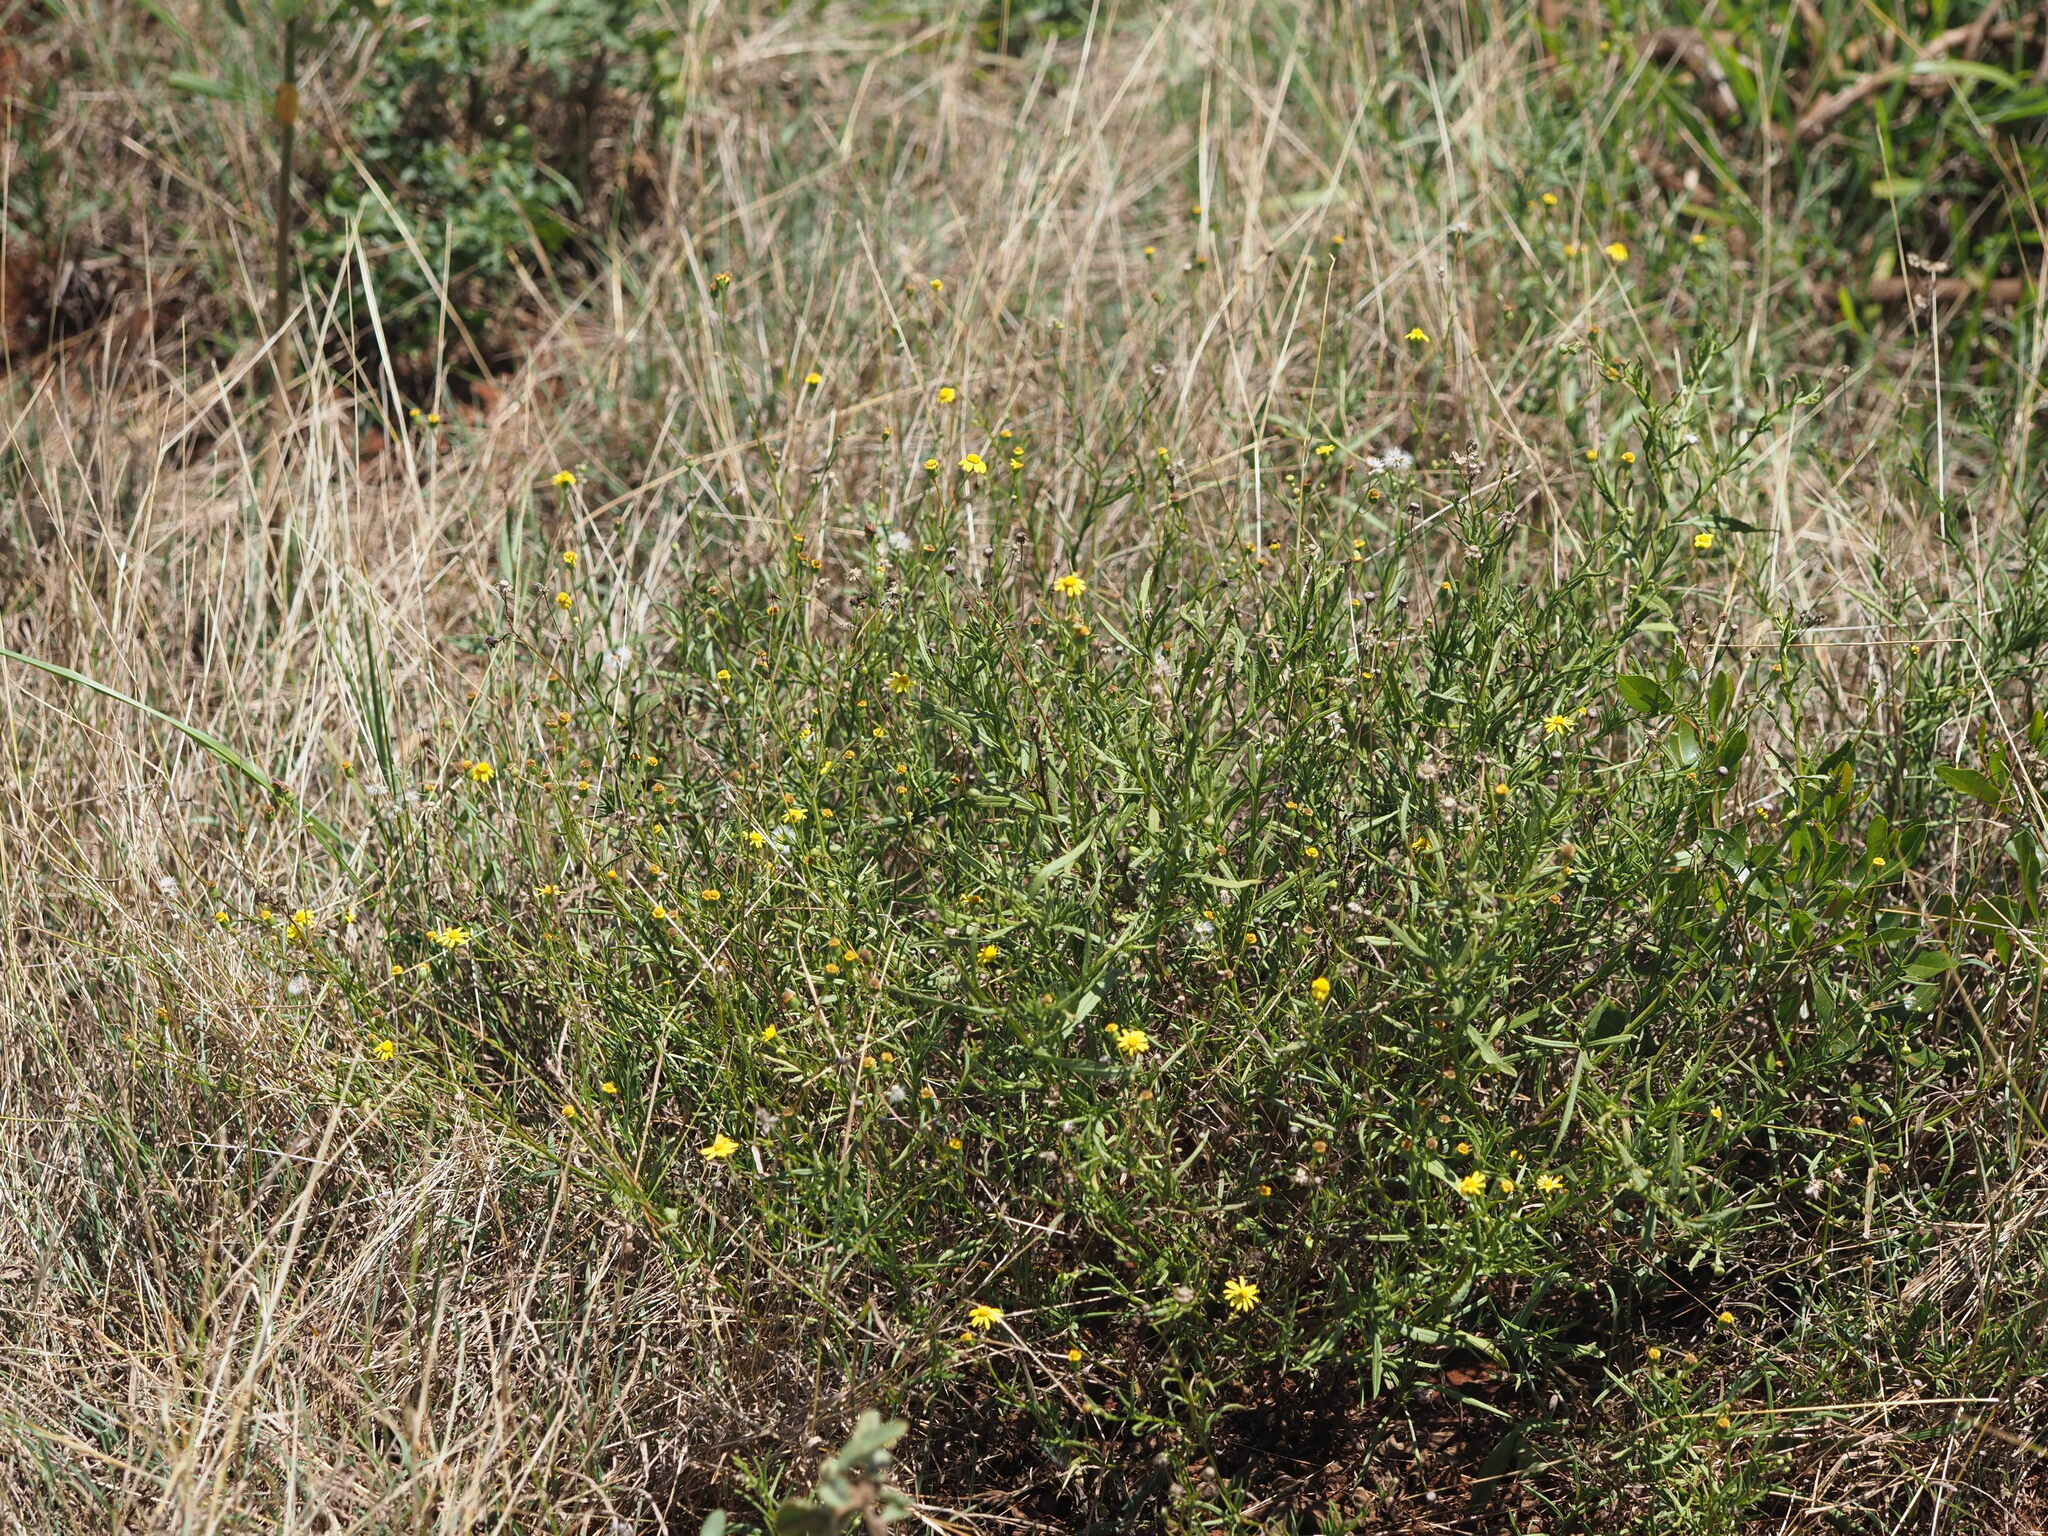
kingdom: Plantae
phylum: Tracheophyta
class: Magnoliopsida
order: Asterales
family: Asteraceae
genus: Senecio
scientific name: Senecio madagascariensis
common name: Madagascar ragwort
